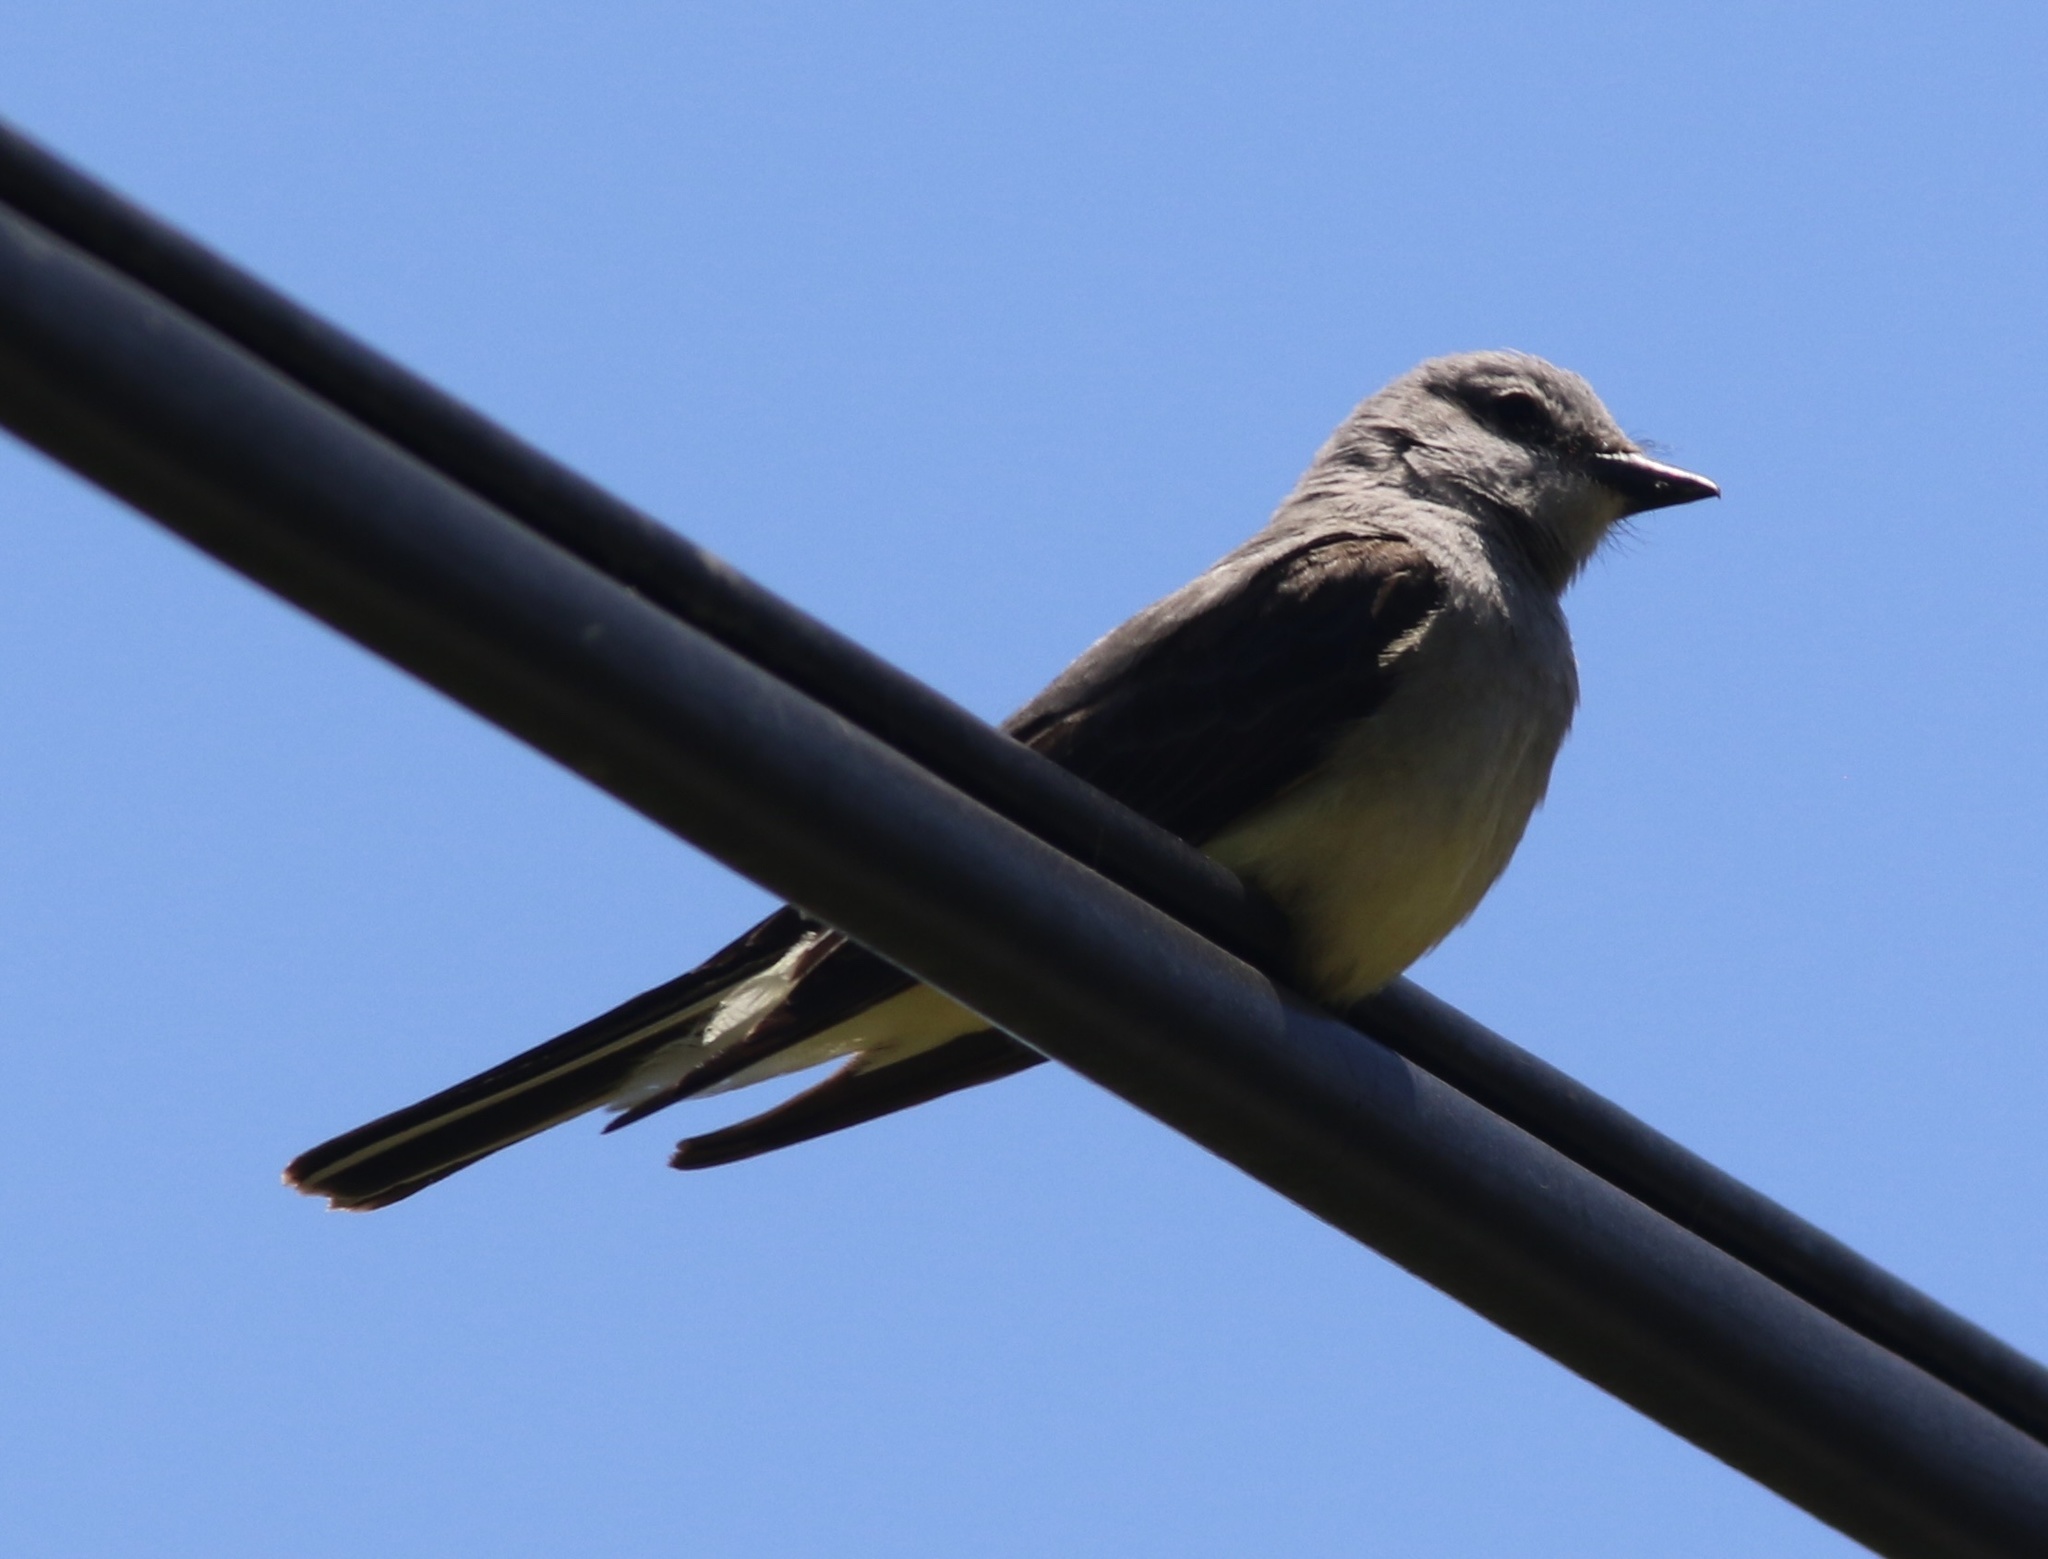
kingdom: Animalia
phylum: Chordata
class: Aves
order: Passeriformes
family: Tyrannidae
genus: Tyrannus
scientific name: Tyrannus verticalis
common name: Western kingbird
